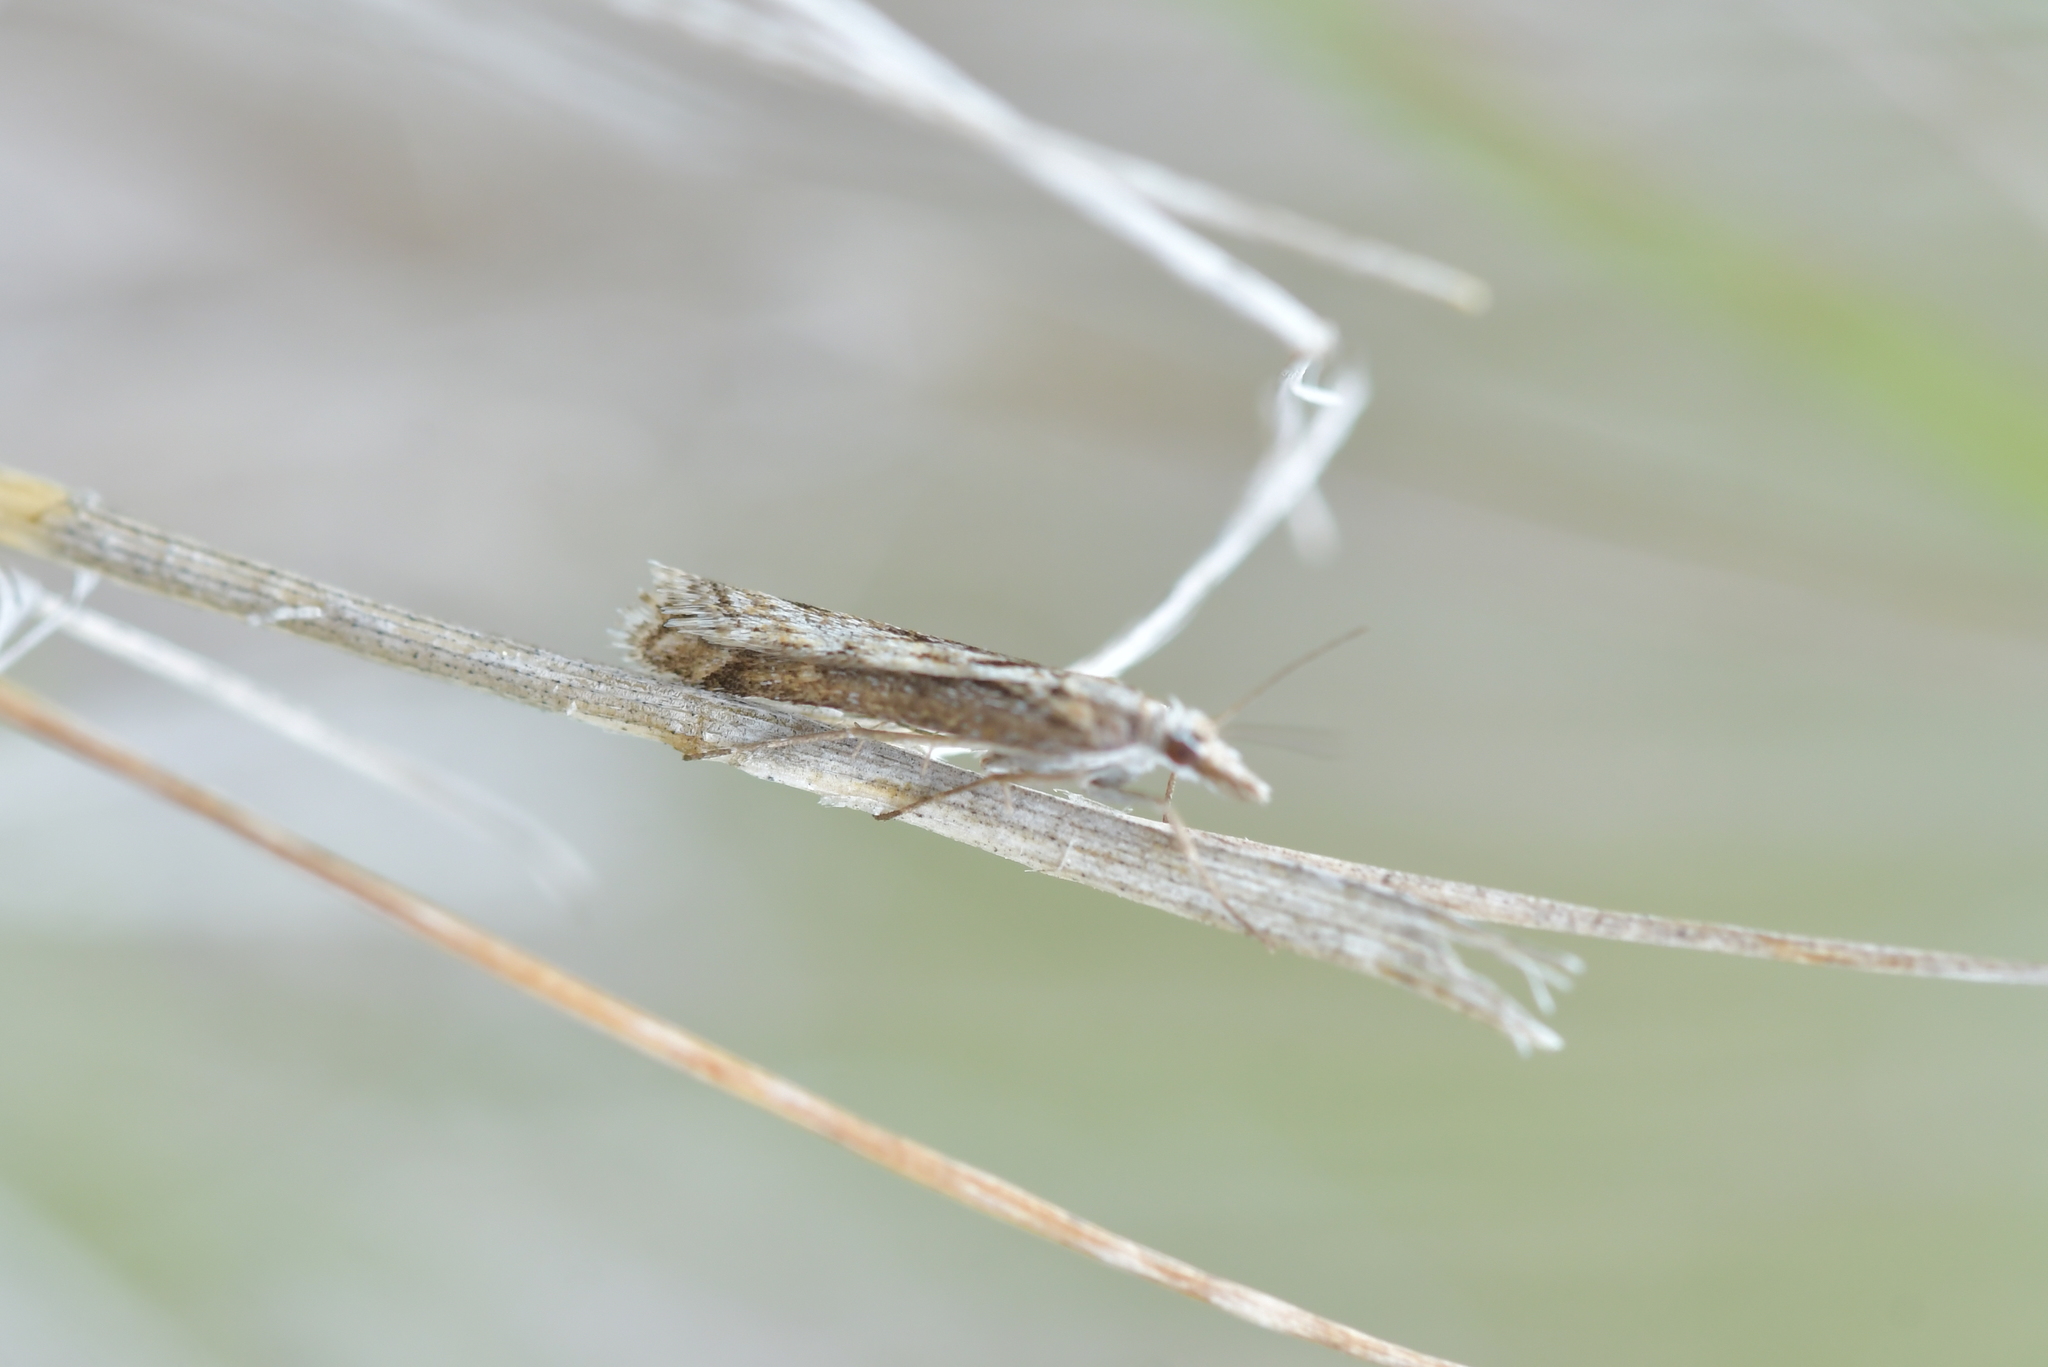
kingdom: Animalia
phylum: Arthropoda
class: Insecta
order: Lepidoptera
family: Crambidae
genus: Scoparia
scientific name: Scoparia exilis
